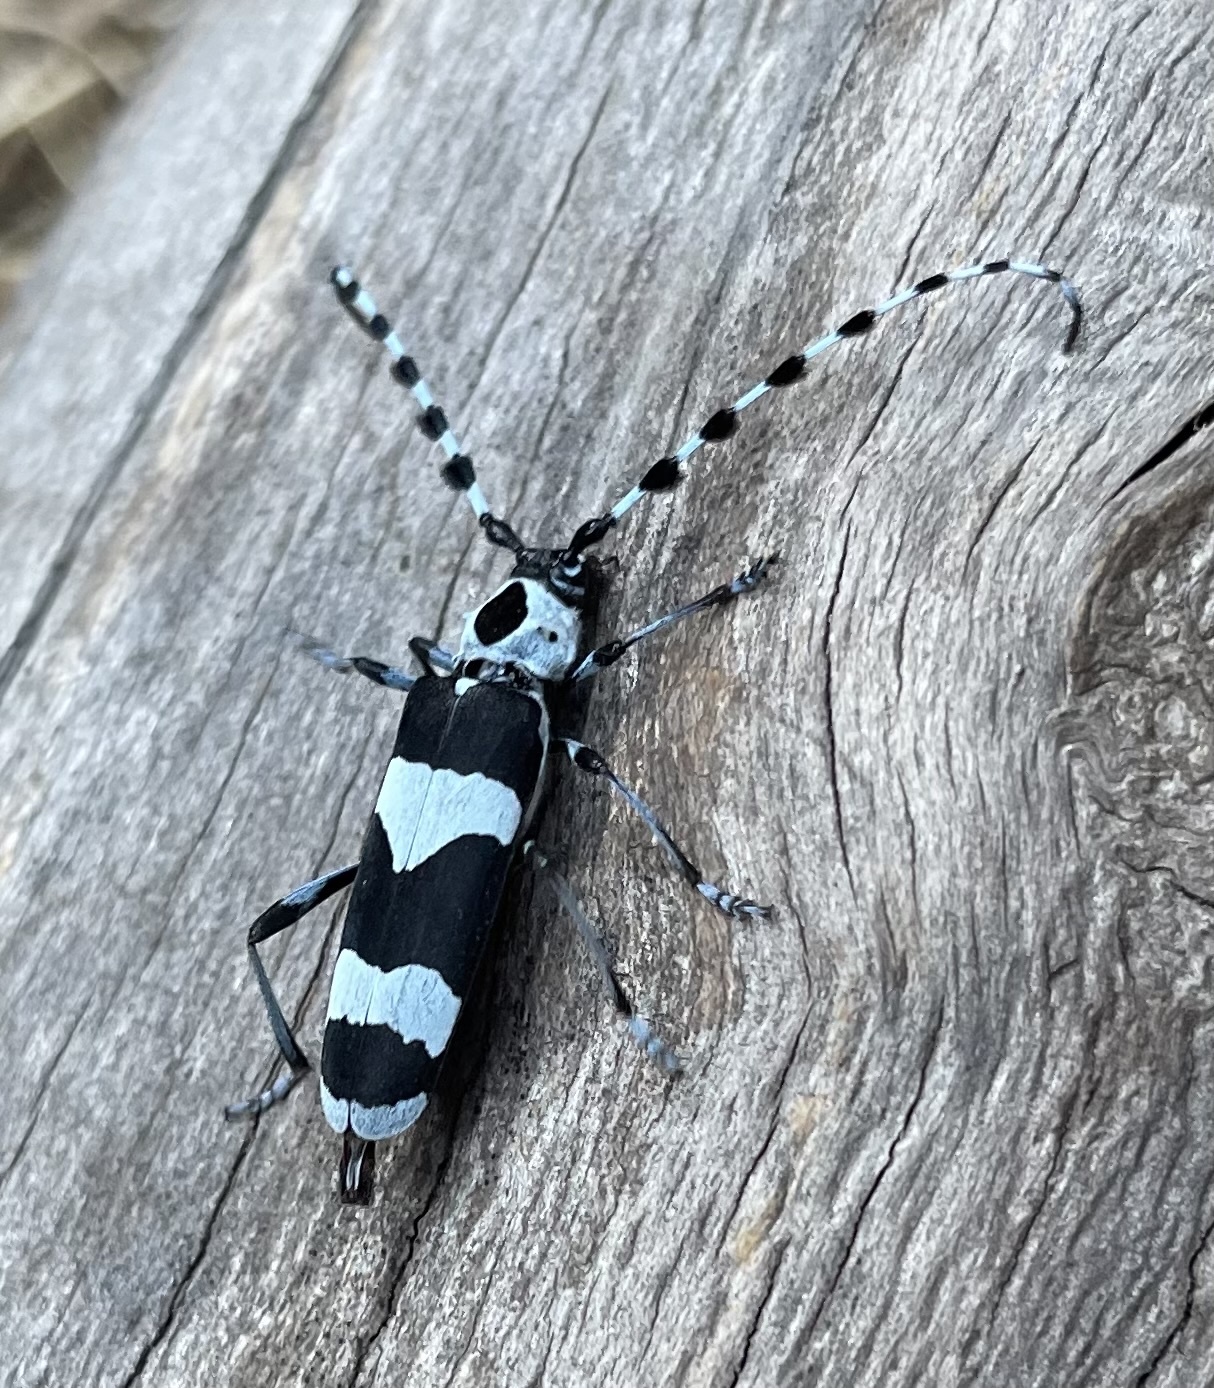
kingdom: Animalia
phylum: Arthropoda
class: Insecta
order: Coleoptera
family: Cerambycidae
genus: Rosalia
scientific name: Rosalia funebris
